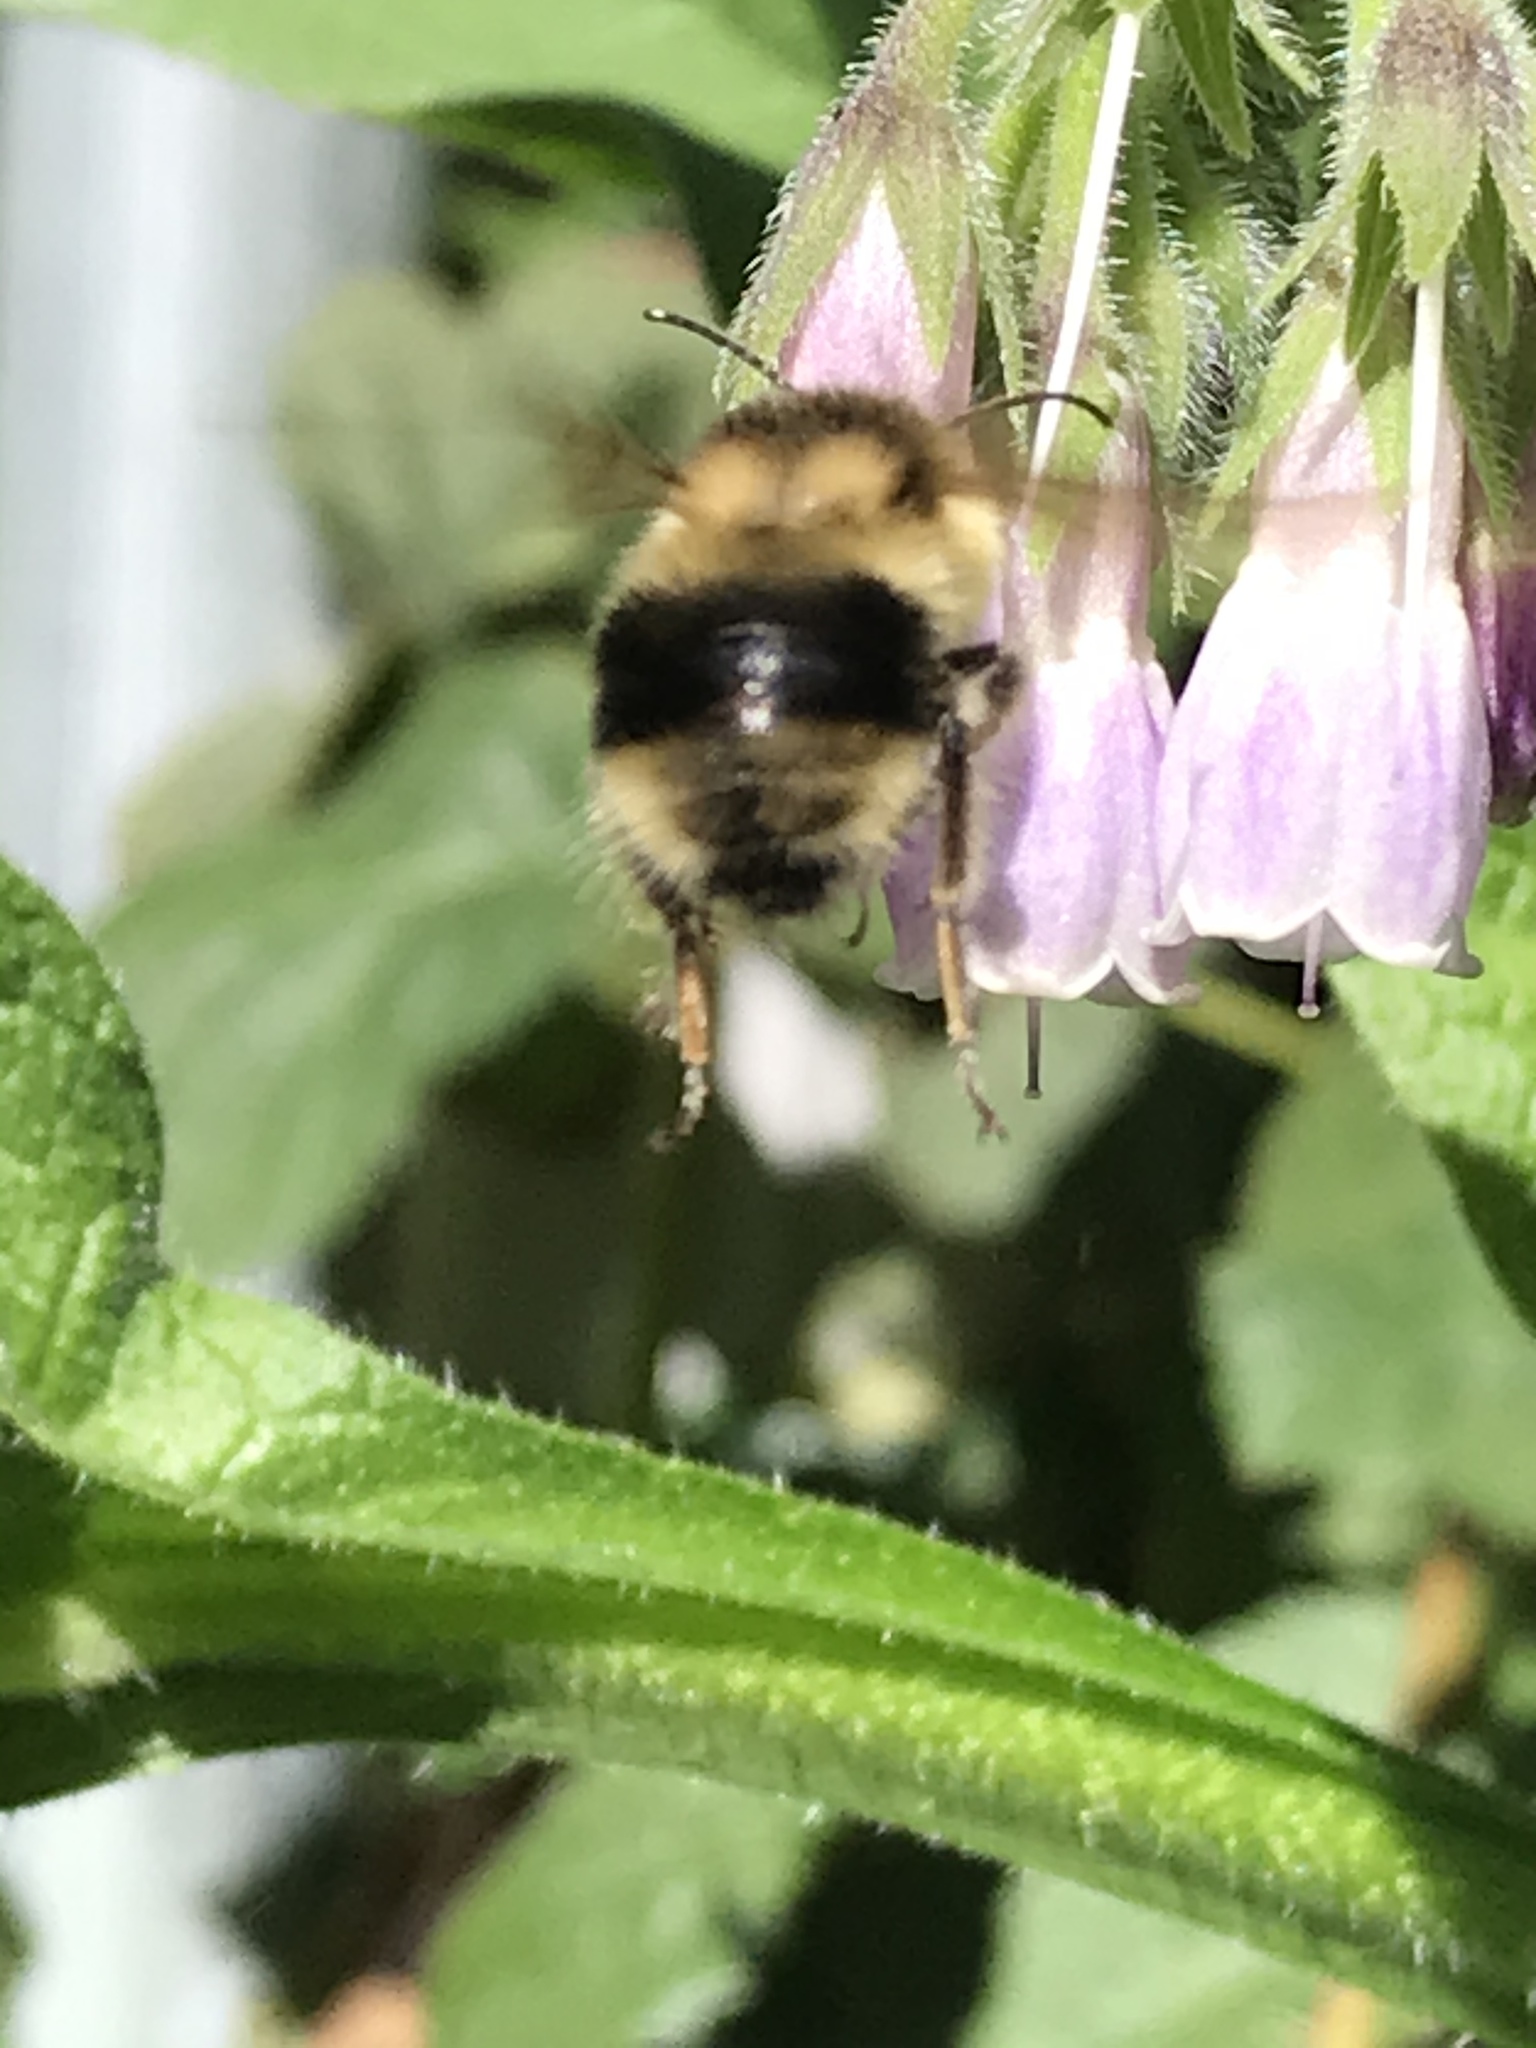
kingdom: Animalia
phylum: Arthropoda
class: Insecta
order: Hymenoptera
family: Apidae
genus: Bombus
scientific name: Bombus melanopygus
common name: Black tail bumble bee
